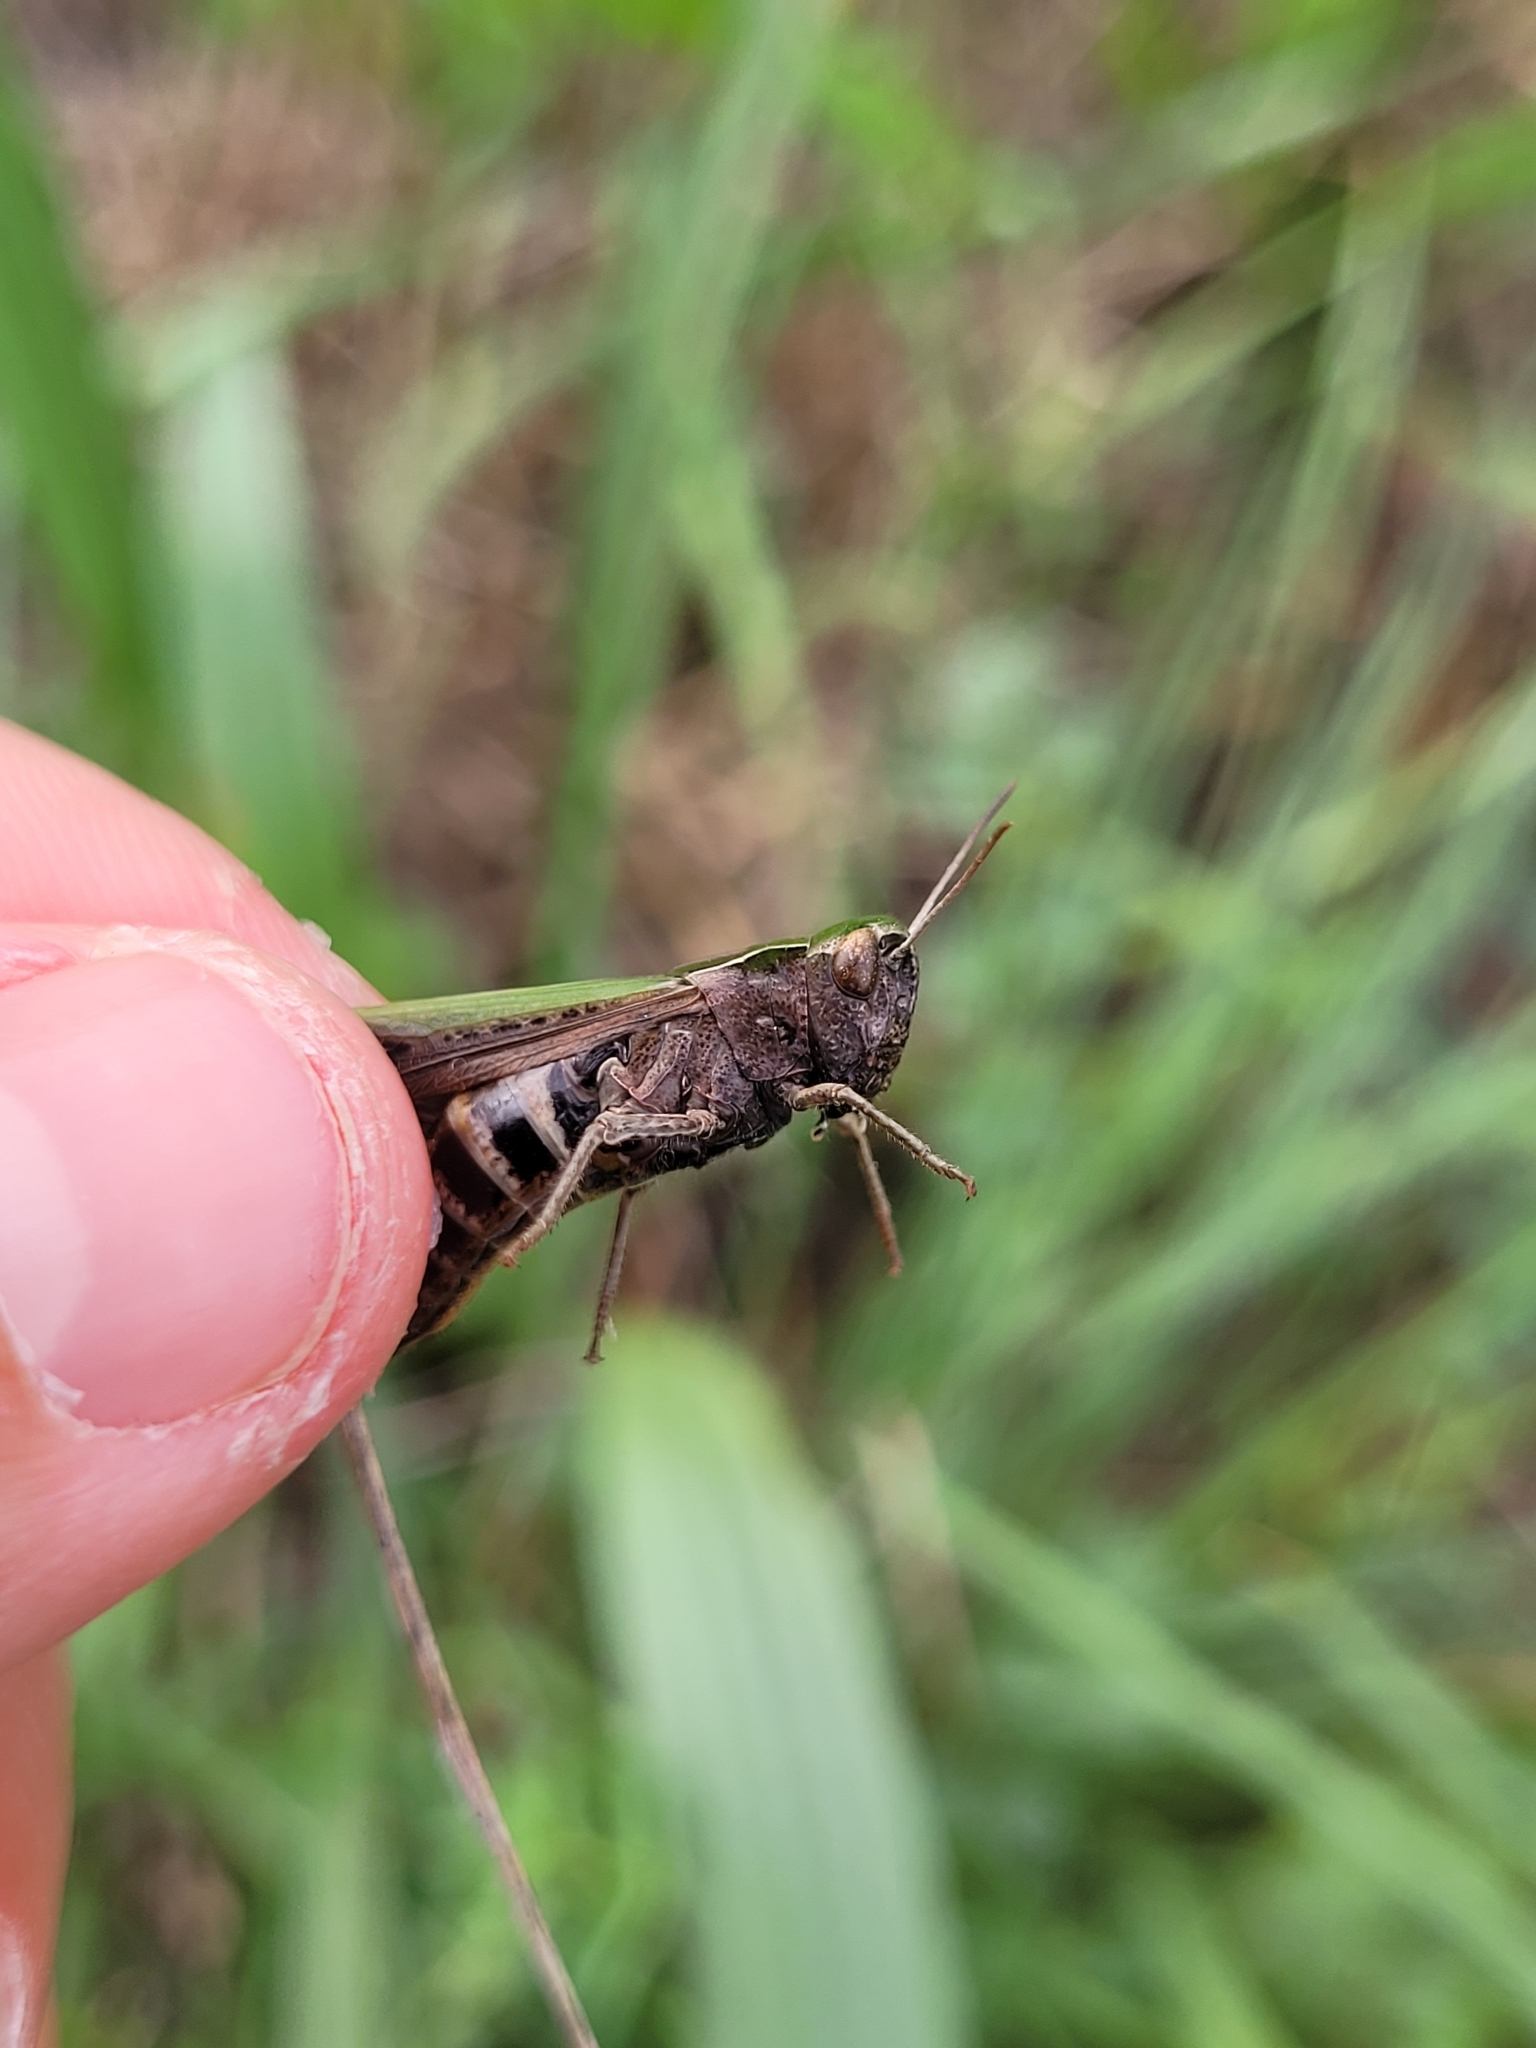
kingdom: Animalia
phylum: Arthropoda
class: Insecta
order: Orthoptera
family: Acrididae
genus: Omocestus
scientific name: Omocestus rufipes
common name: Woodland grasshopper
